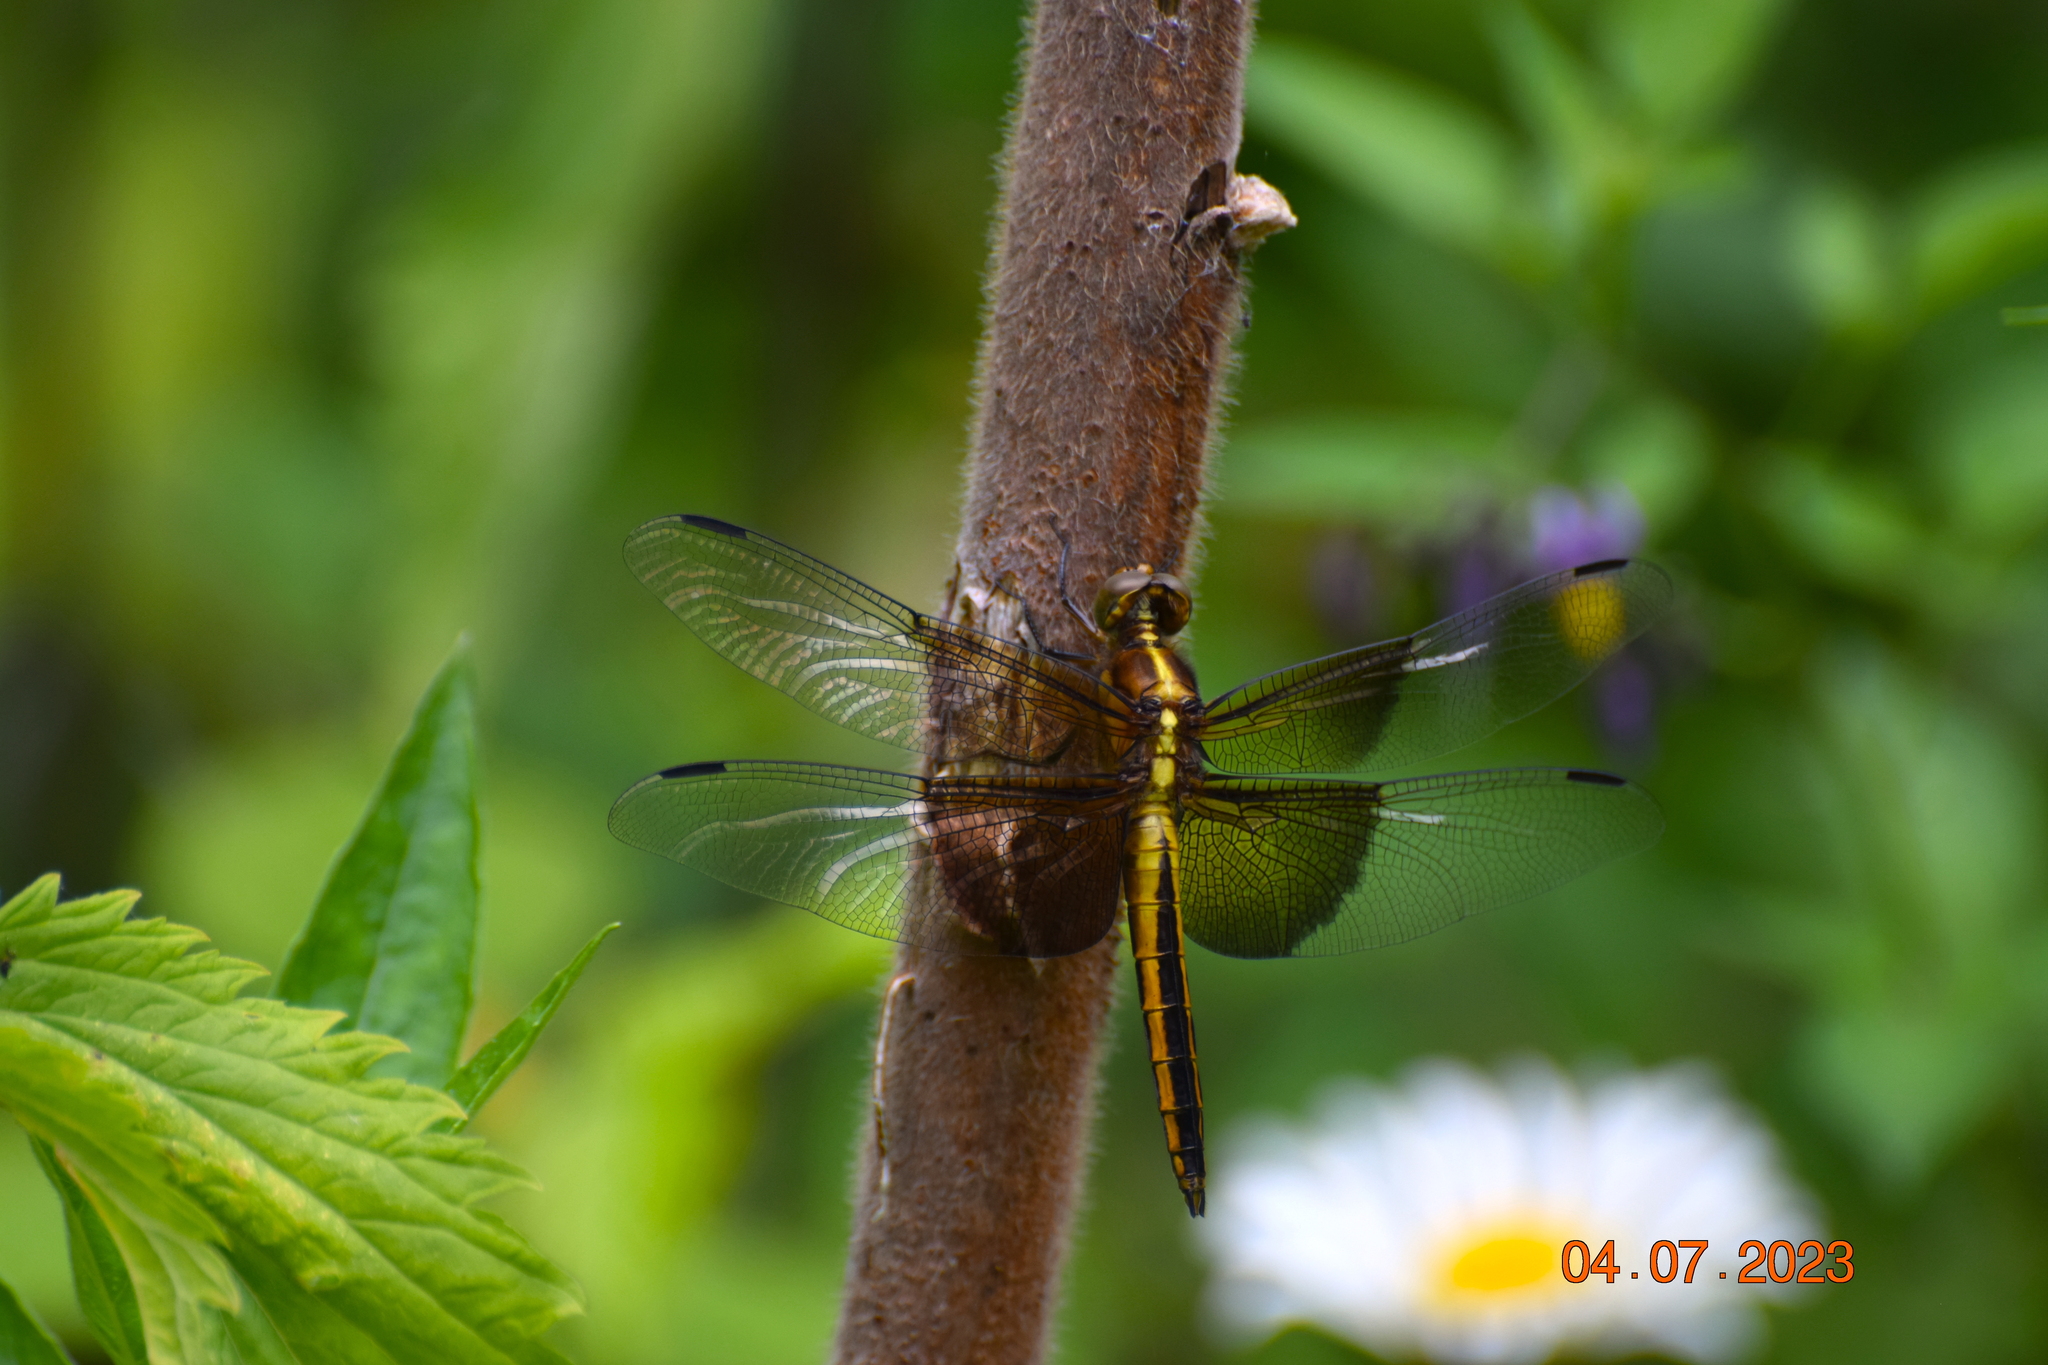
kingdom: Animalia
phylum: Arthropoda
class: Insecta
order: Odonata
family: Libellulidae
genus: Libellula
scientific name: Libellula luctuosa
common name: Widow skimmer
